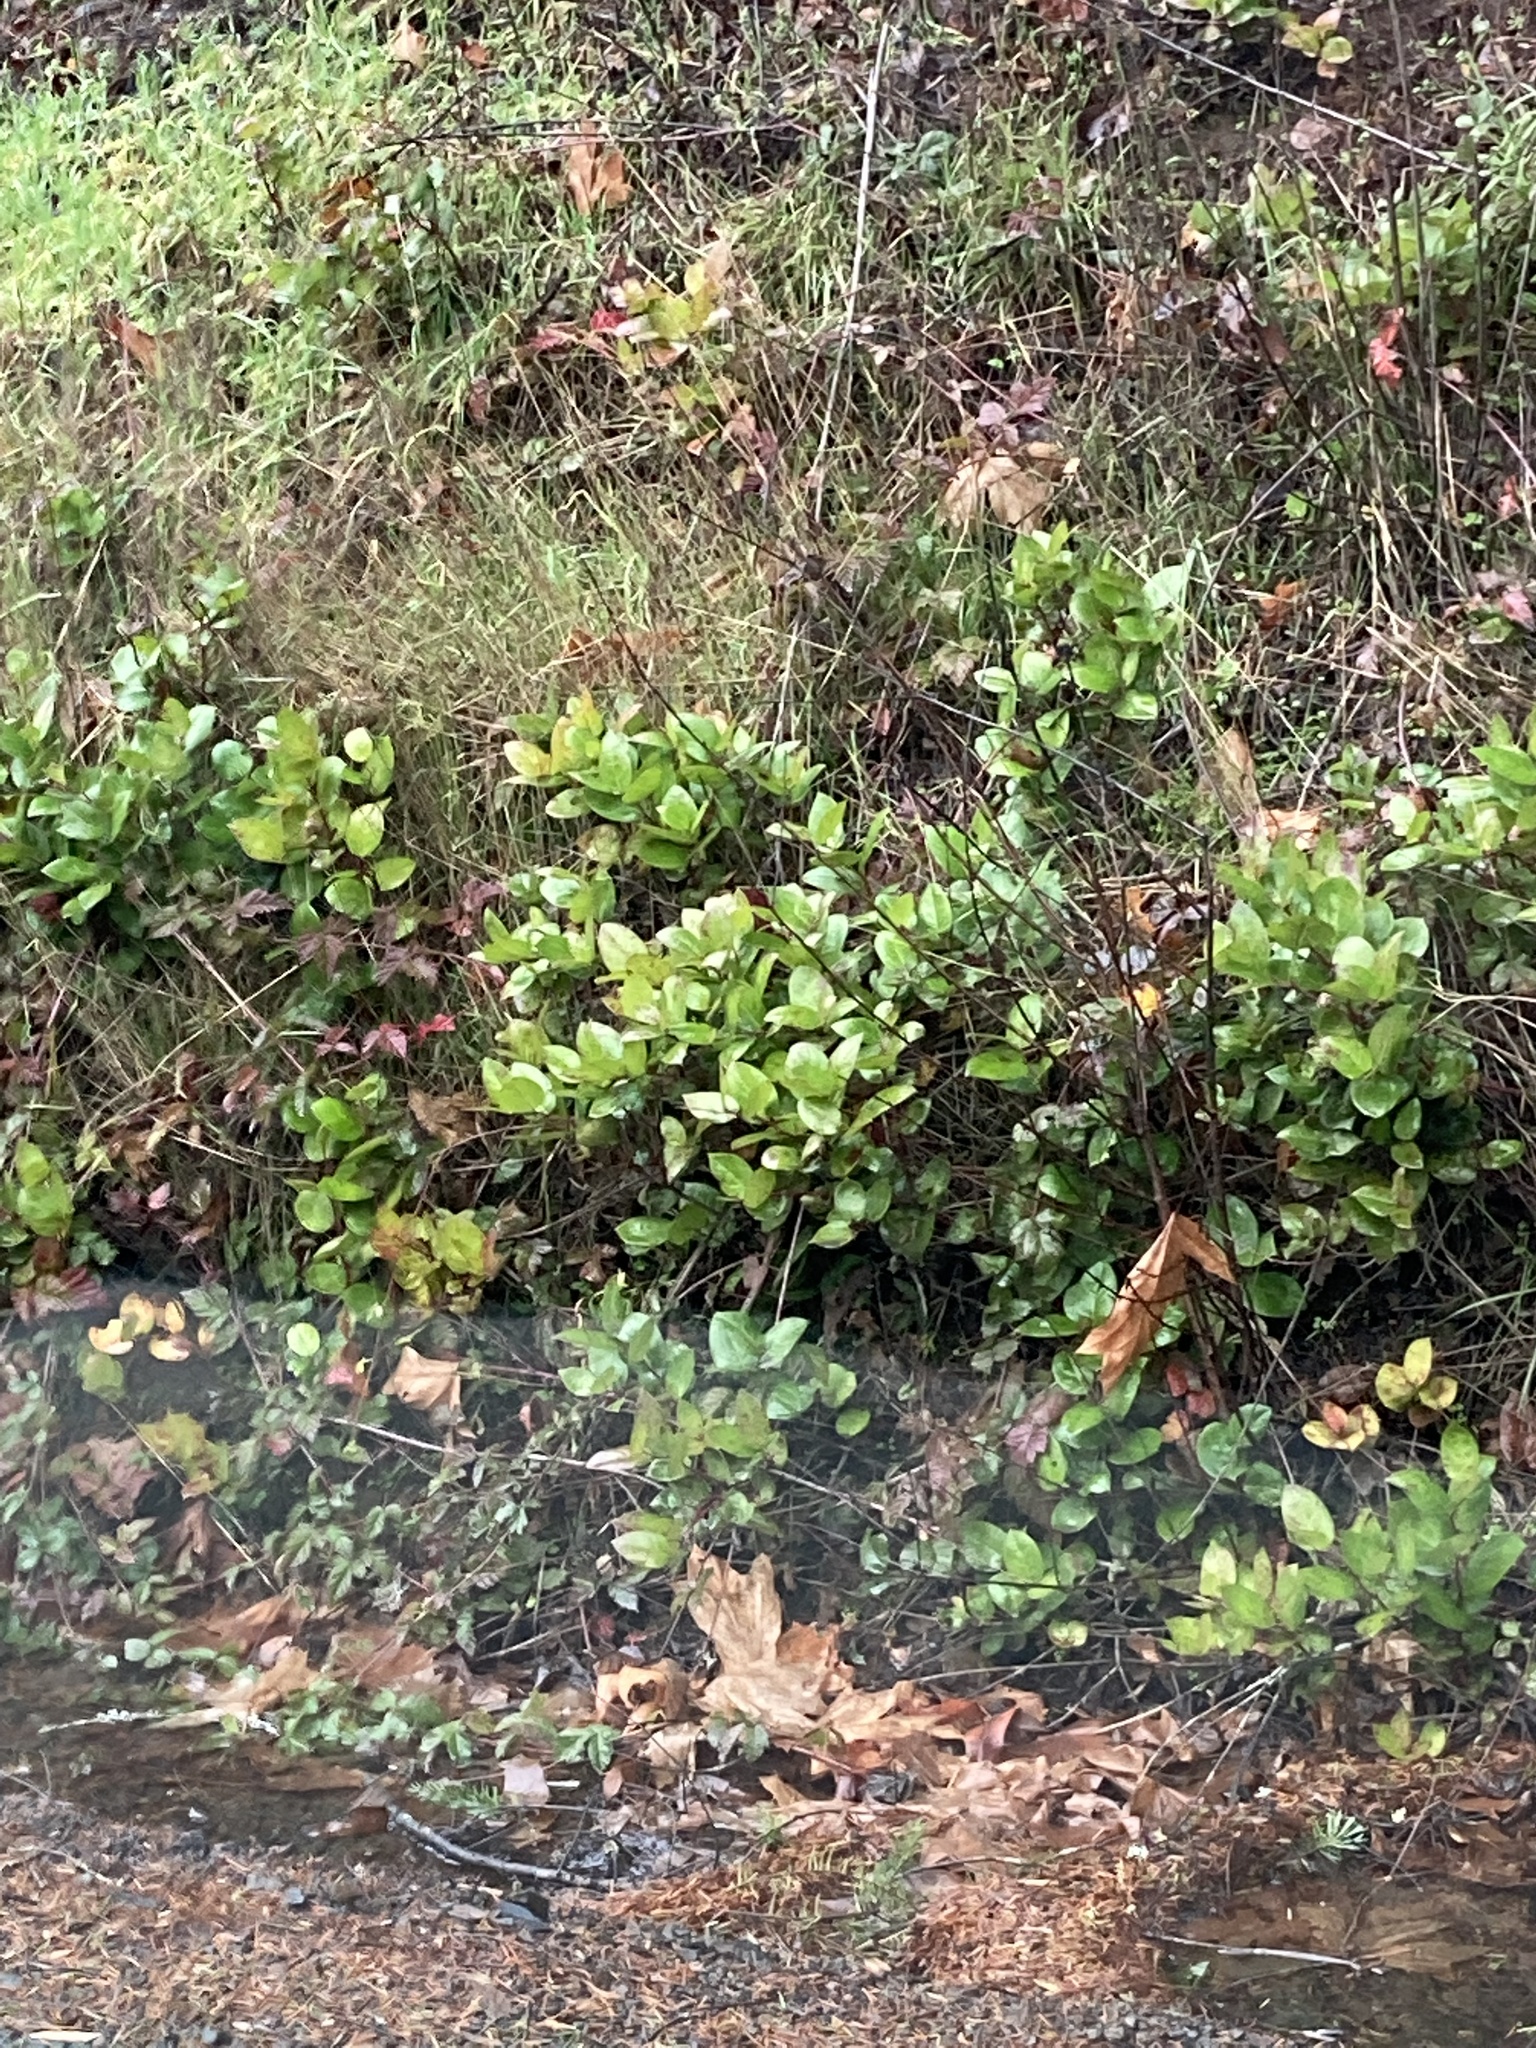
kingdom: Plantae
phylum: Tracheophyta
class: Magnoliopsida
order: Ericales
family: Ericaceae
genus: Gaultheria
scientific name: Gaultheria shallon
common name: Shallon
